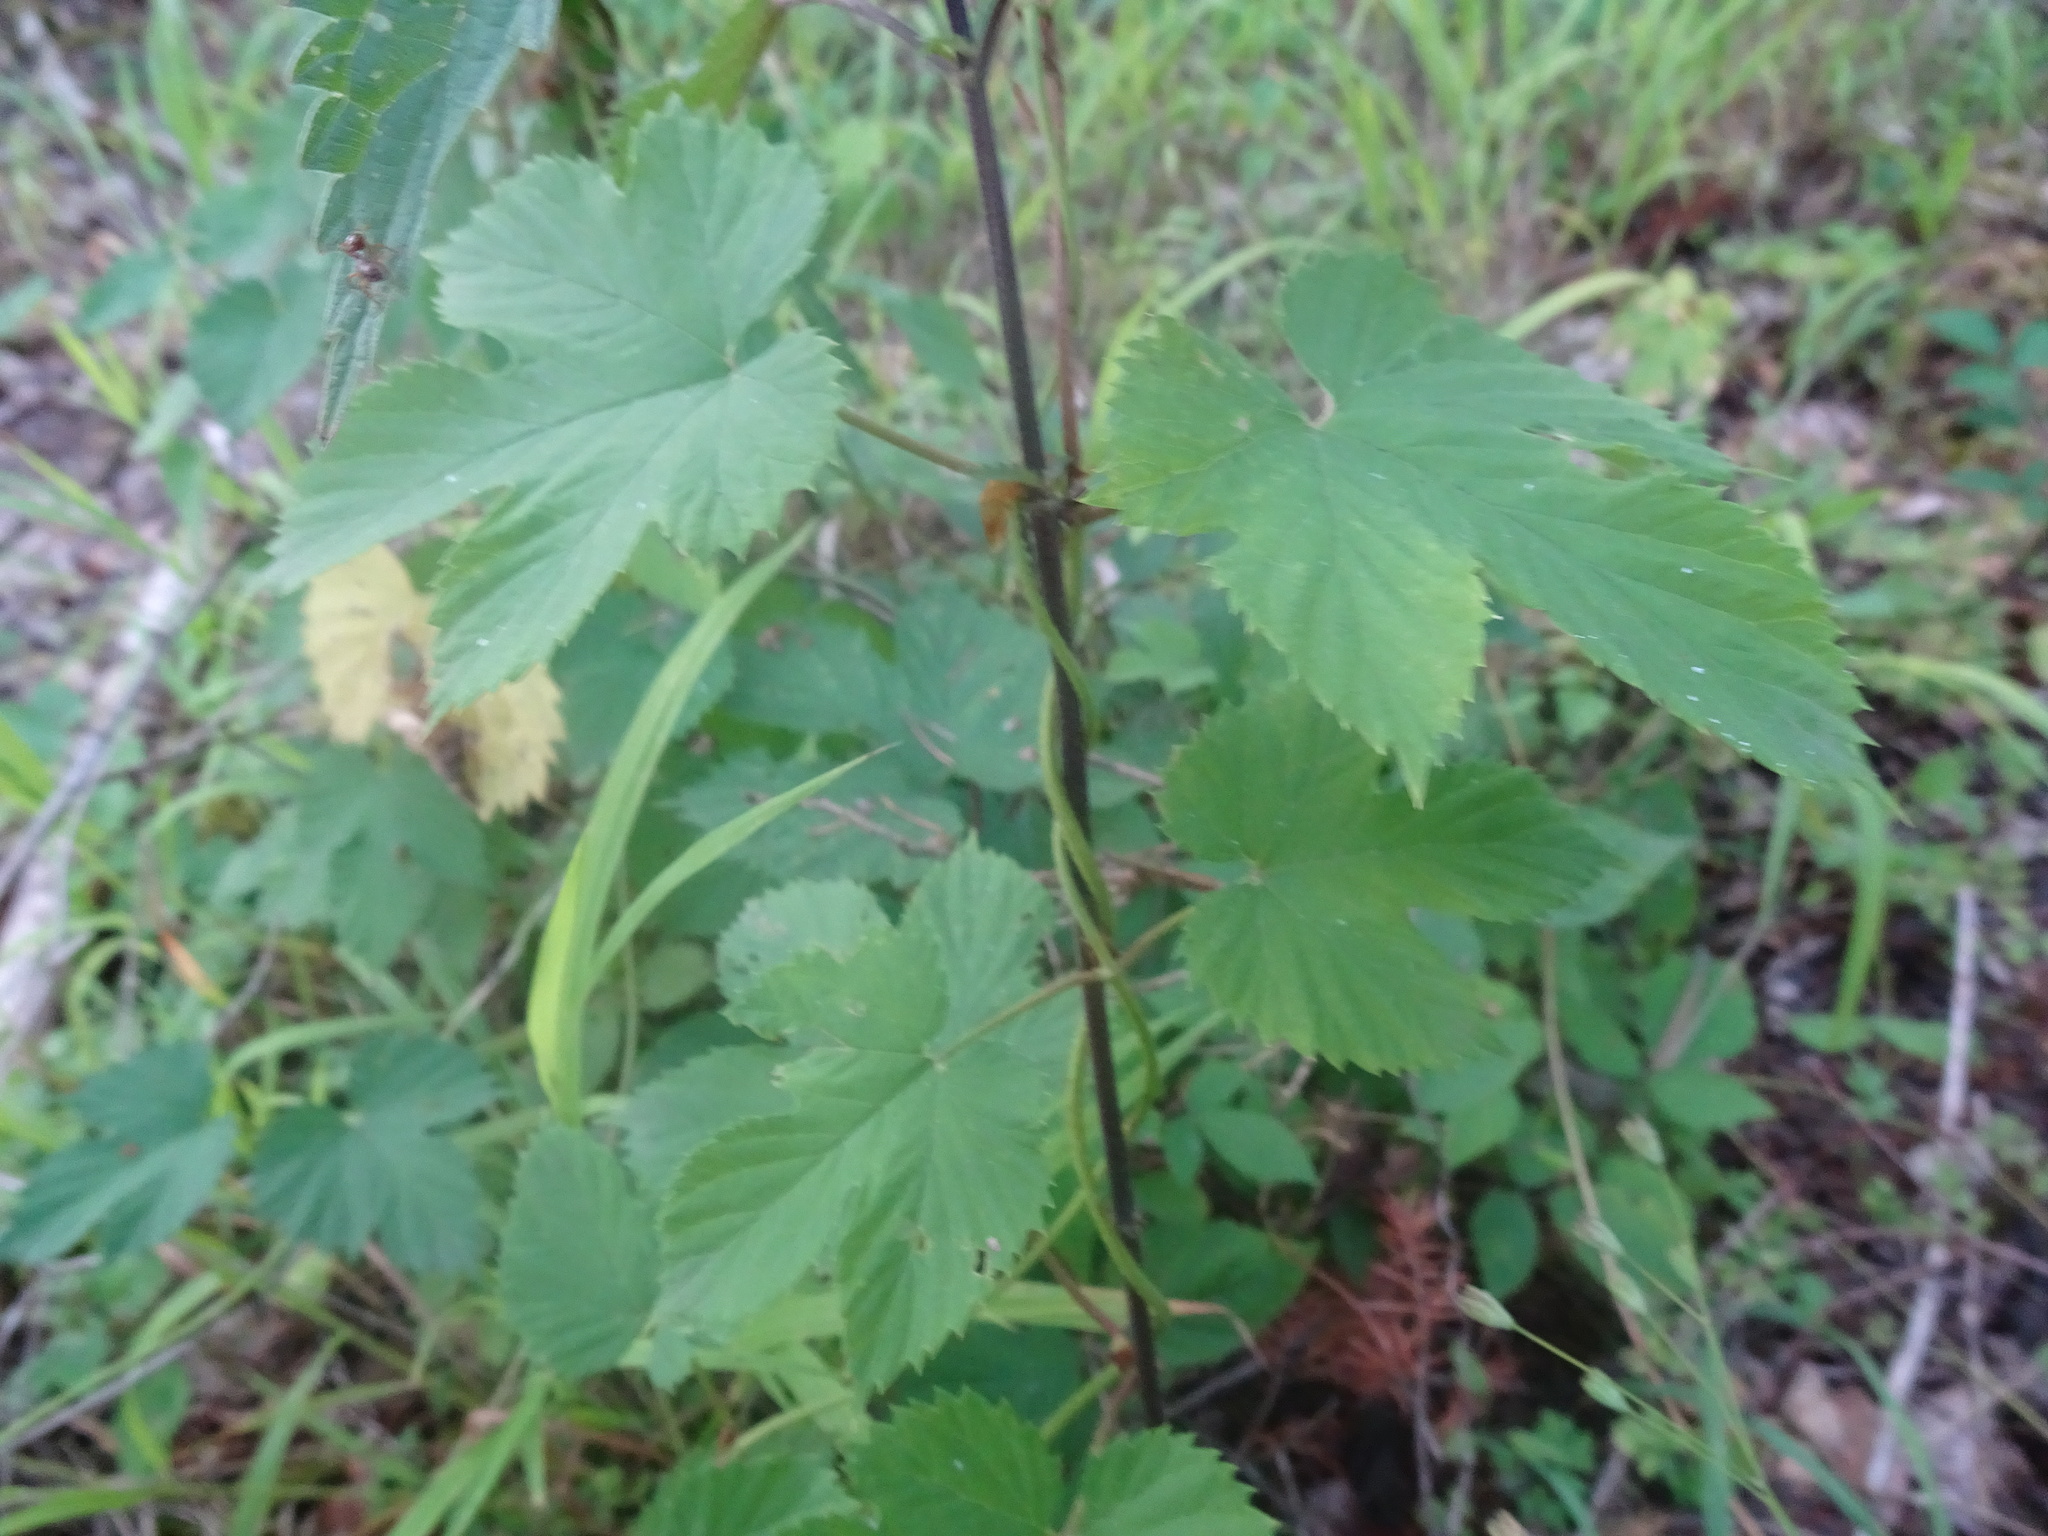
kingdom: Plantae
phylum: Tracheophyta
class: Magnoliopsida
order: Rosales
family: Cannabaceae
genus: Humulus
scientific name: Humulus lupulus
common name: Hop
